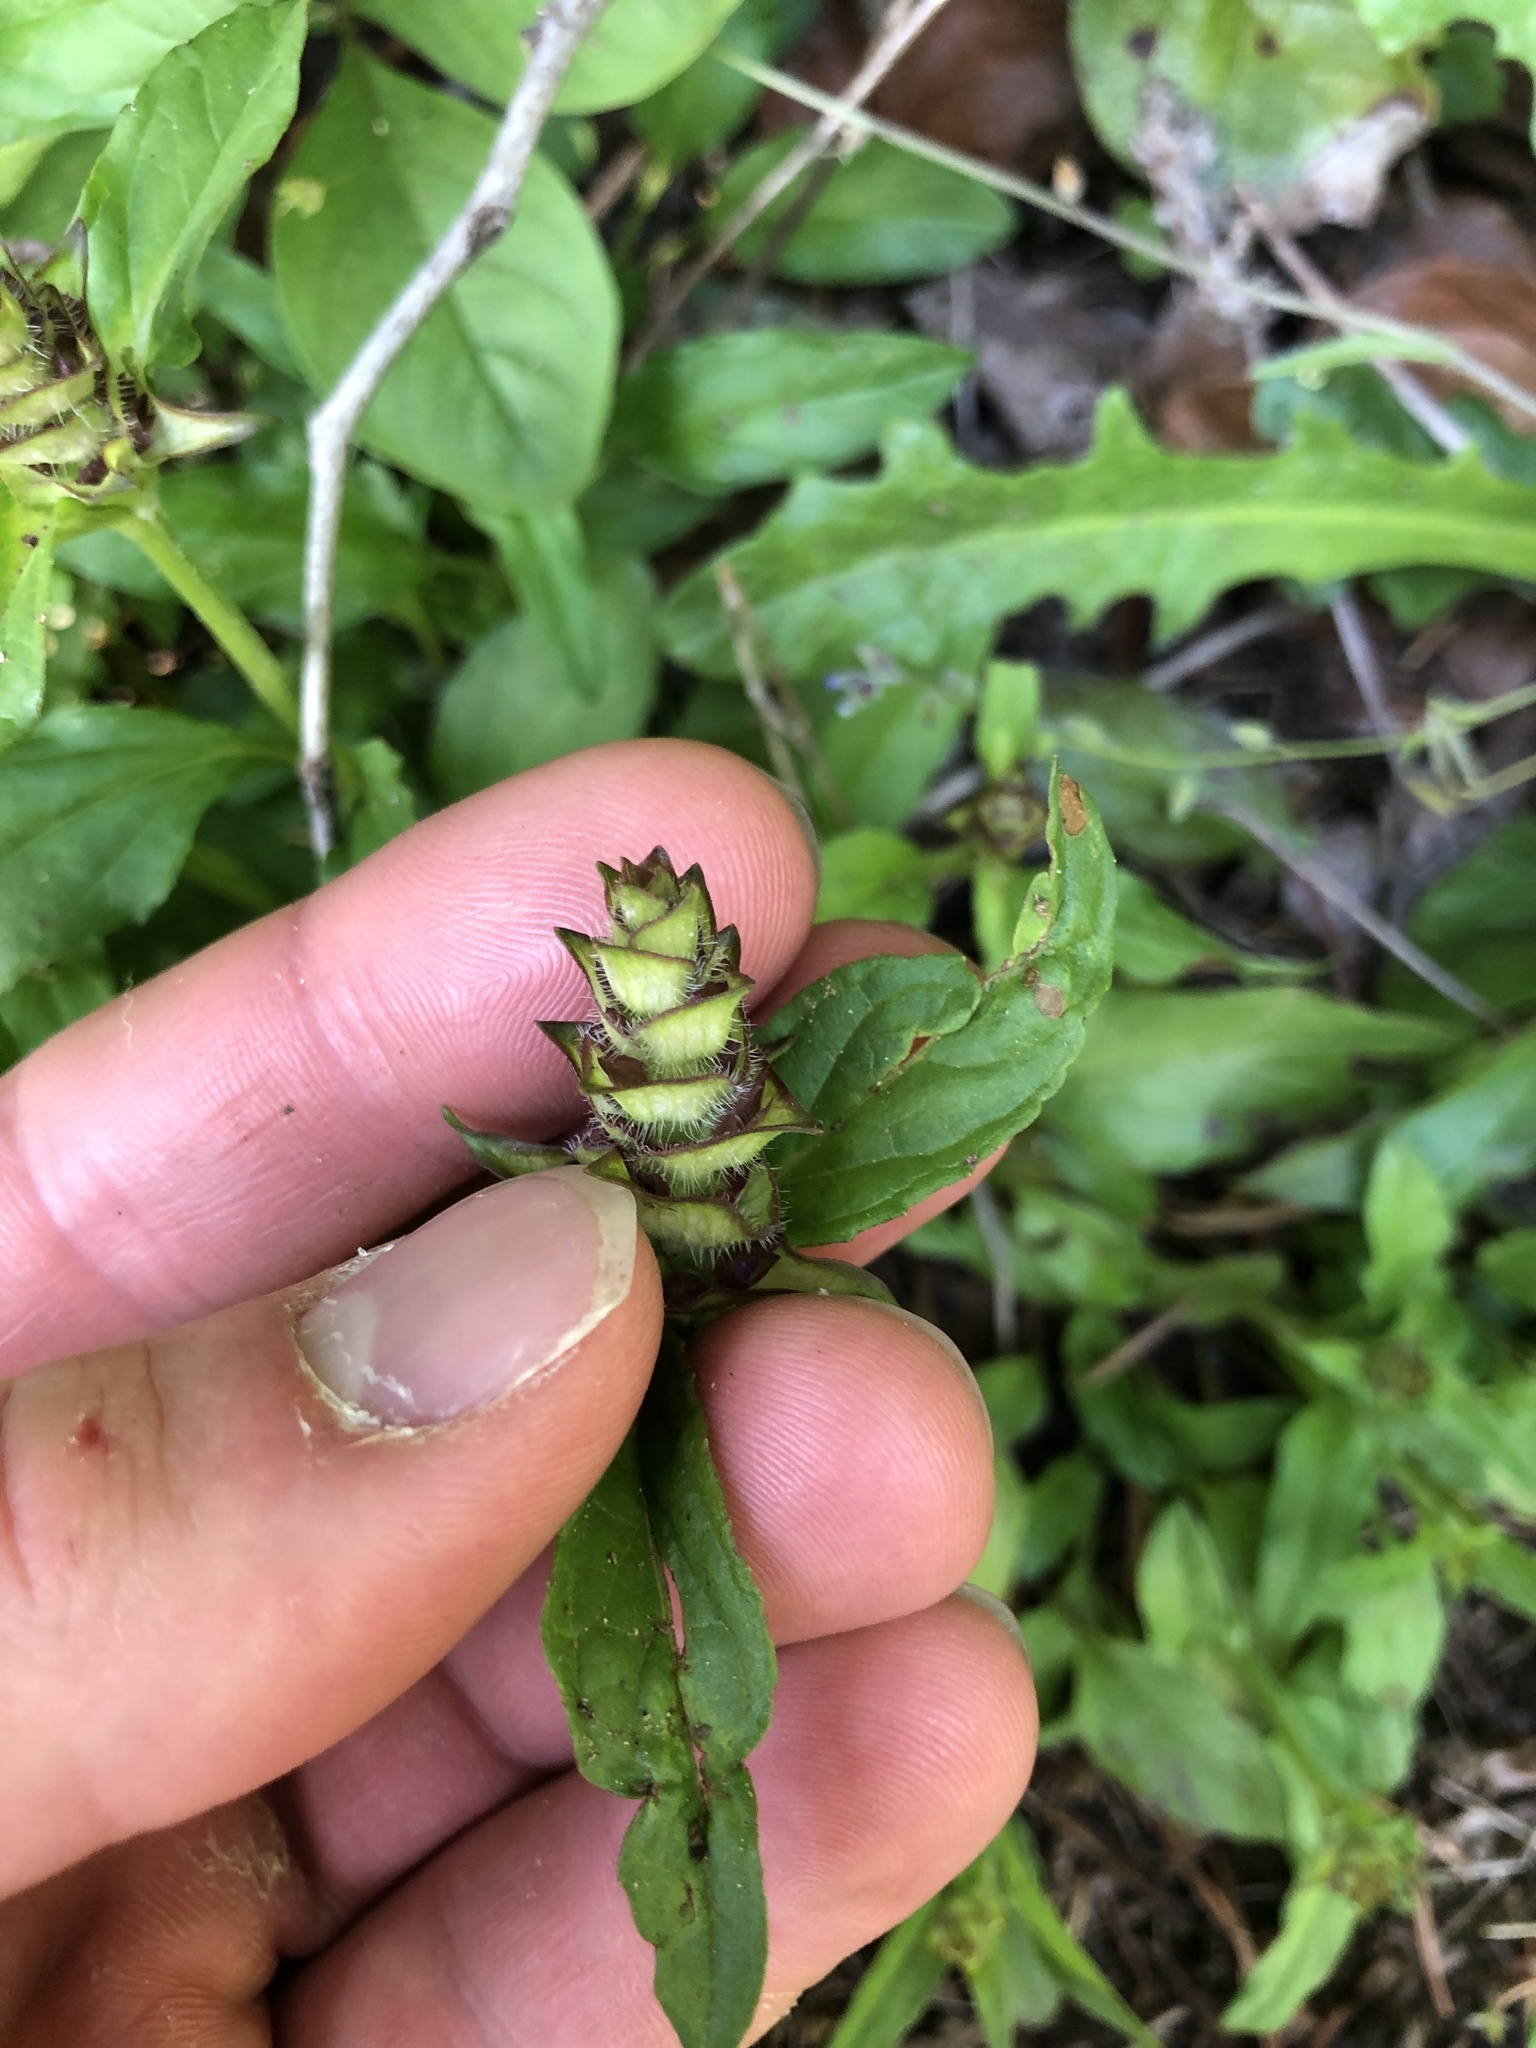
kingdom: Plantae
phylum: Tracheophyta
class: Magnoliopsida
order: Lamiales
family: Lamiaceae
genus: Prunella
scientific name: Prunella vulgaris
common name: Heal-all
